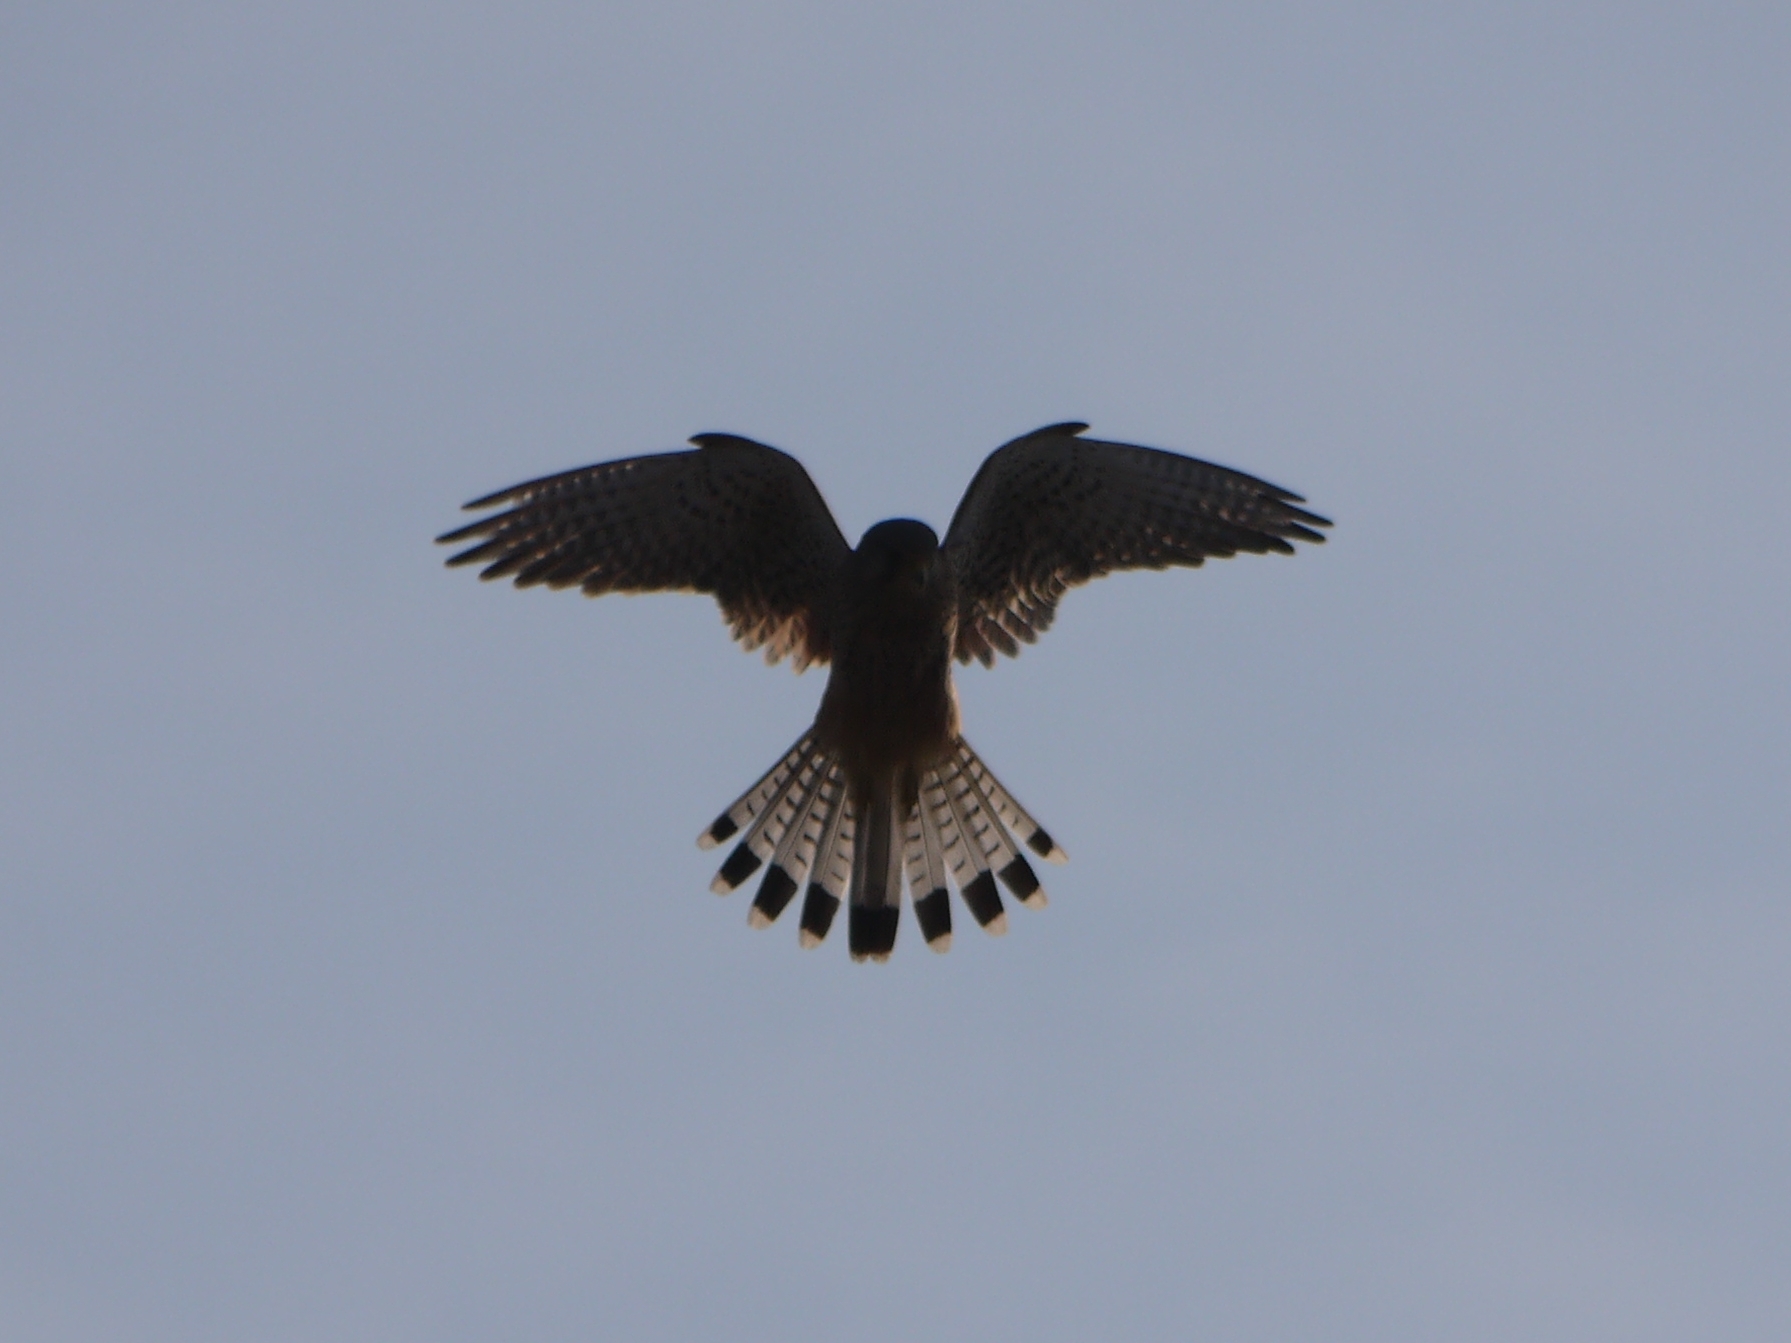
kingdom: Animalia
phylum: Chordata
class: Aves
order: Falconiformes
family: Falconidae
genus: Falco
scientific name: Falco tinnunculus
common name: Common kestrel
